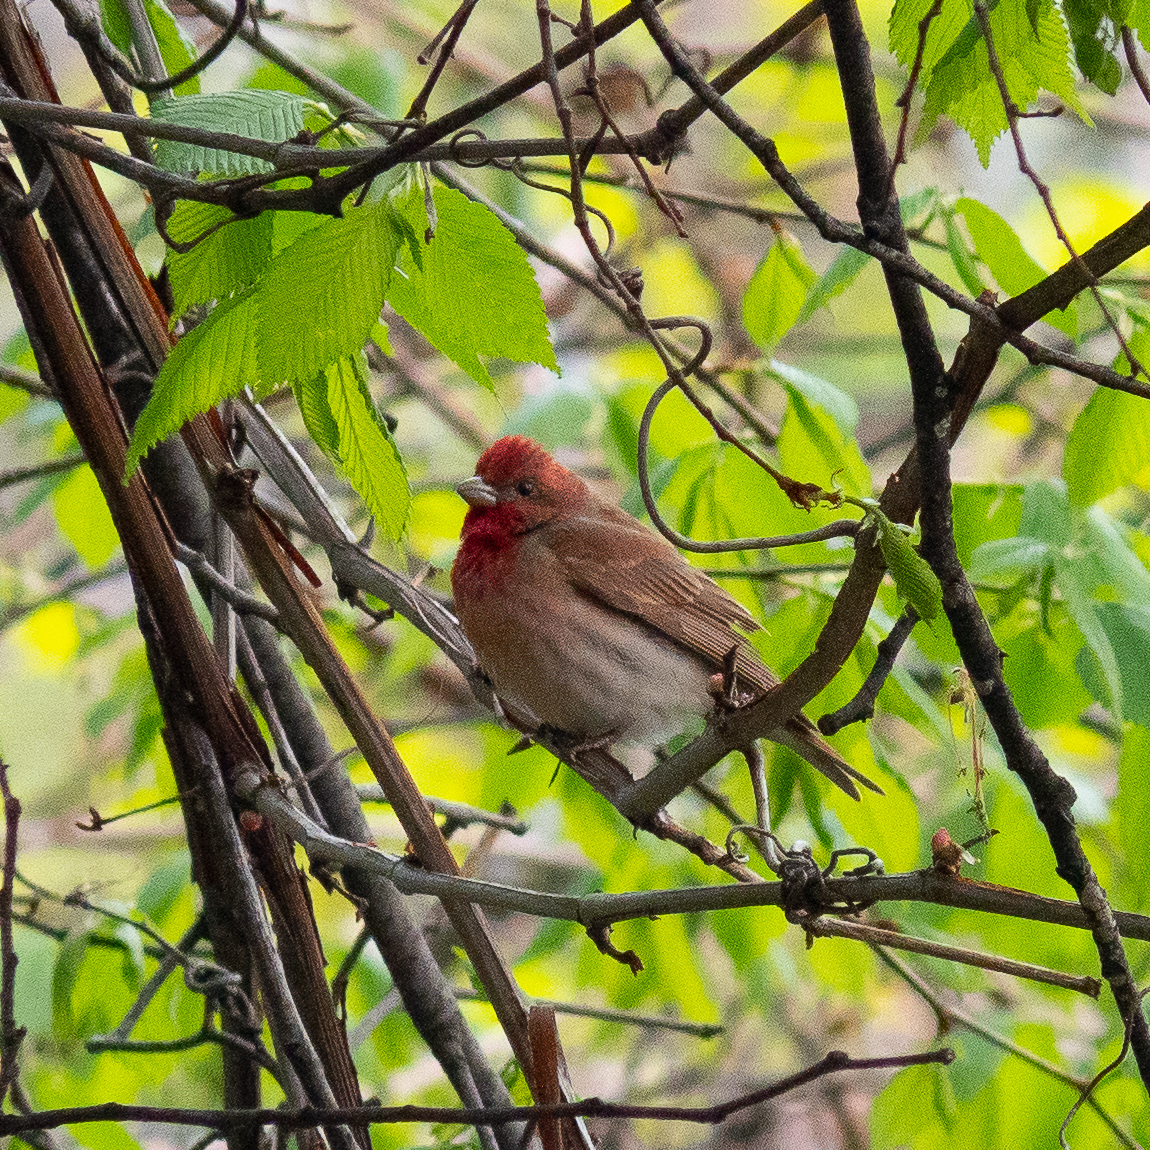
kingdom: Animalia
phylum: Chordata
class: Aves
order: Passeriformes
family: Fringillidae
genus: Carpodacus
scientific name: Carpodacus erythrinus
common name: Common rosefinch
